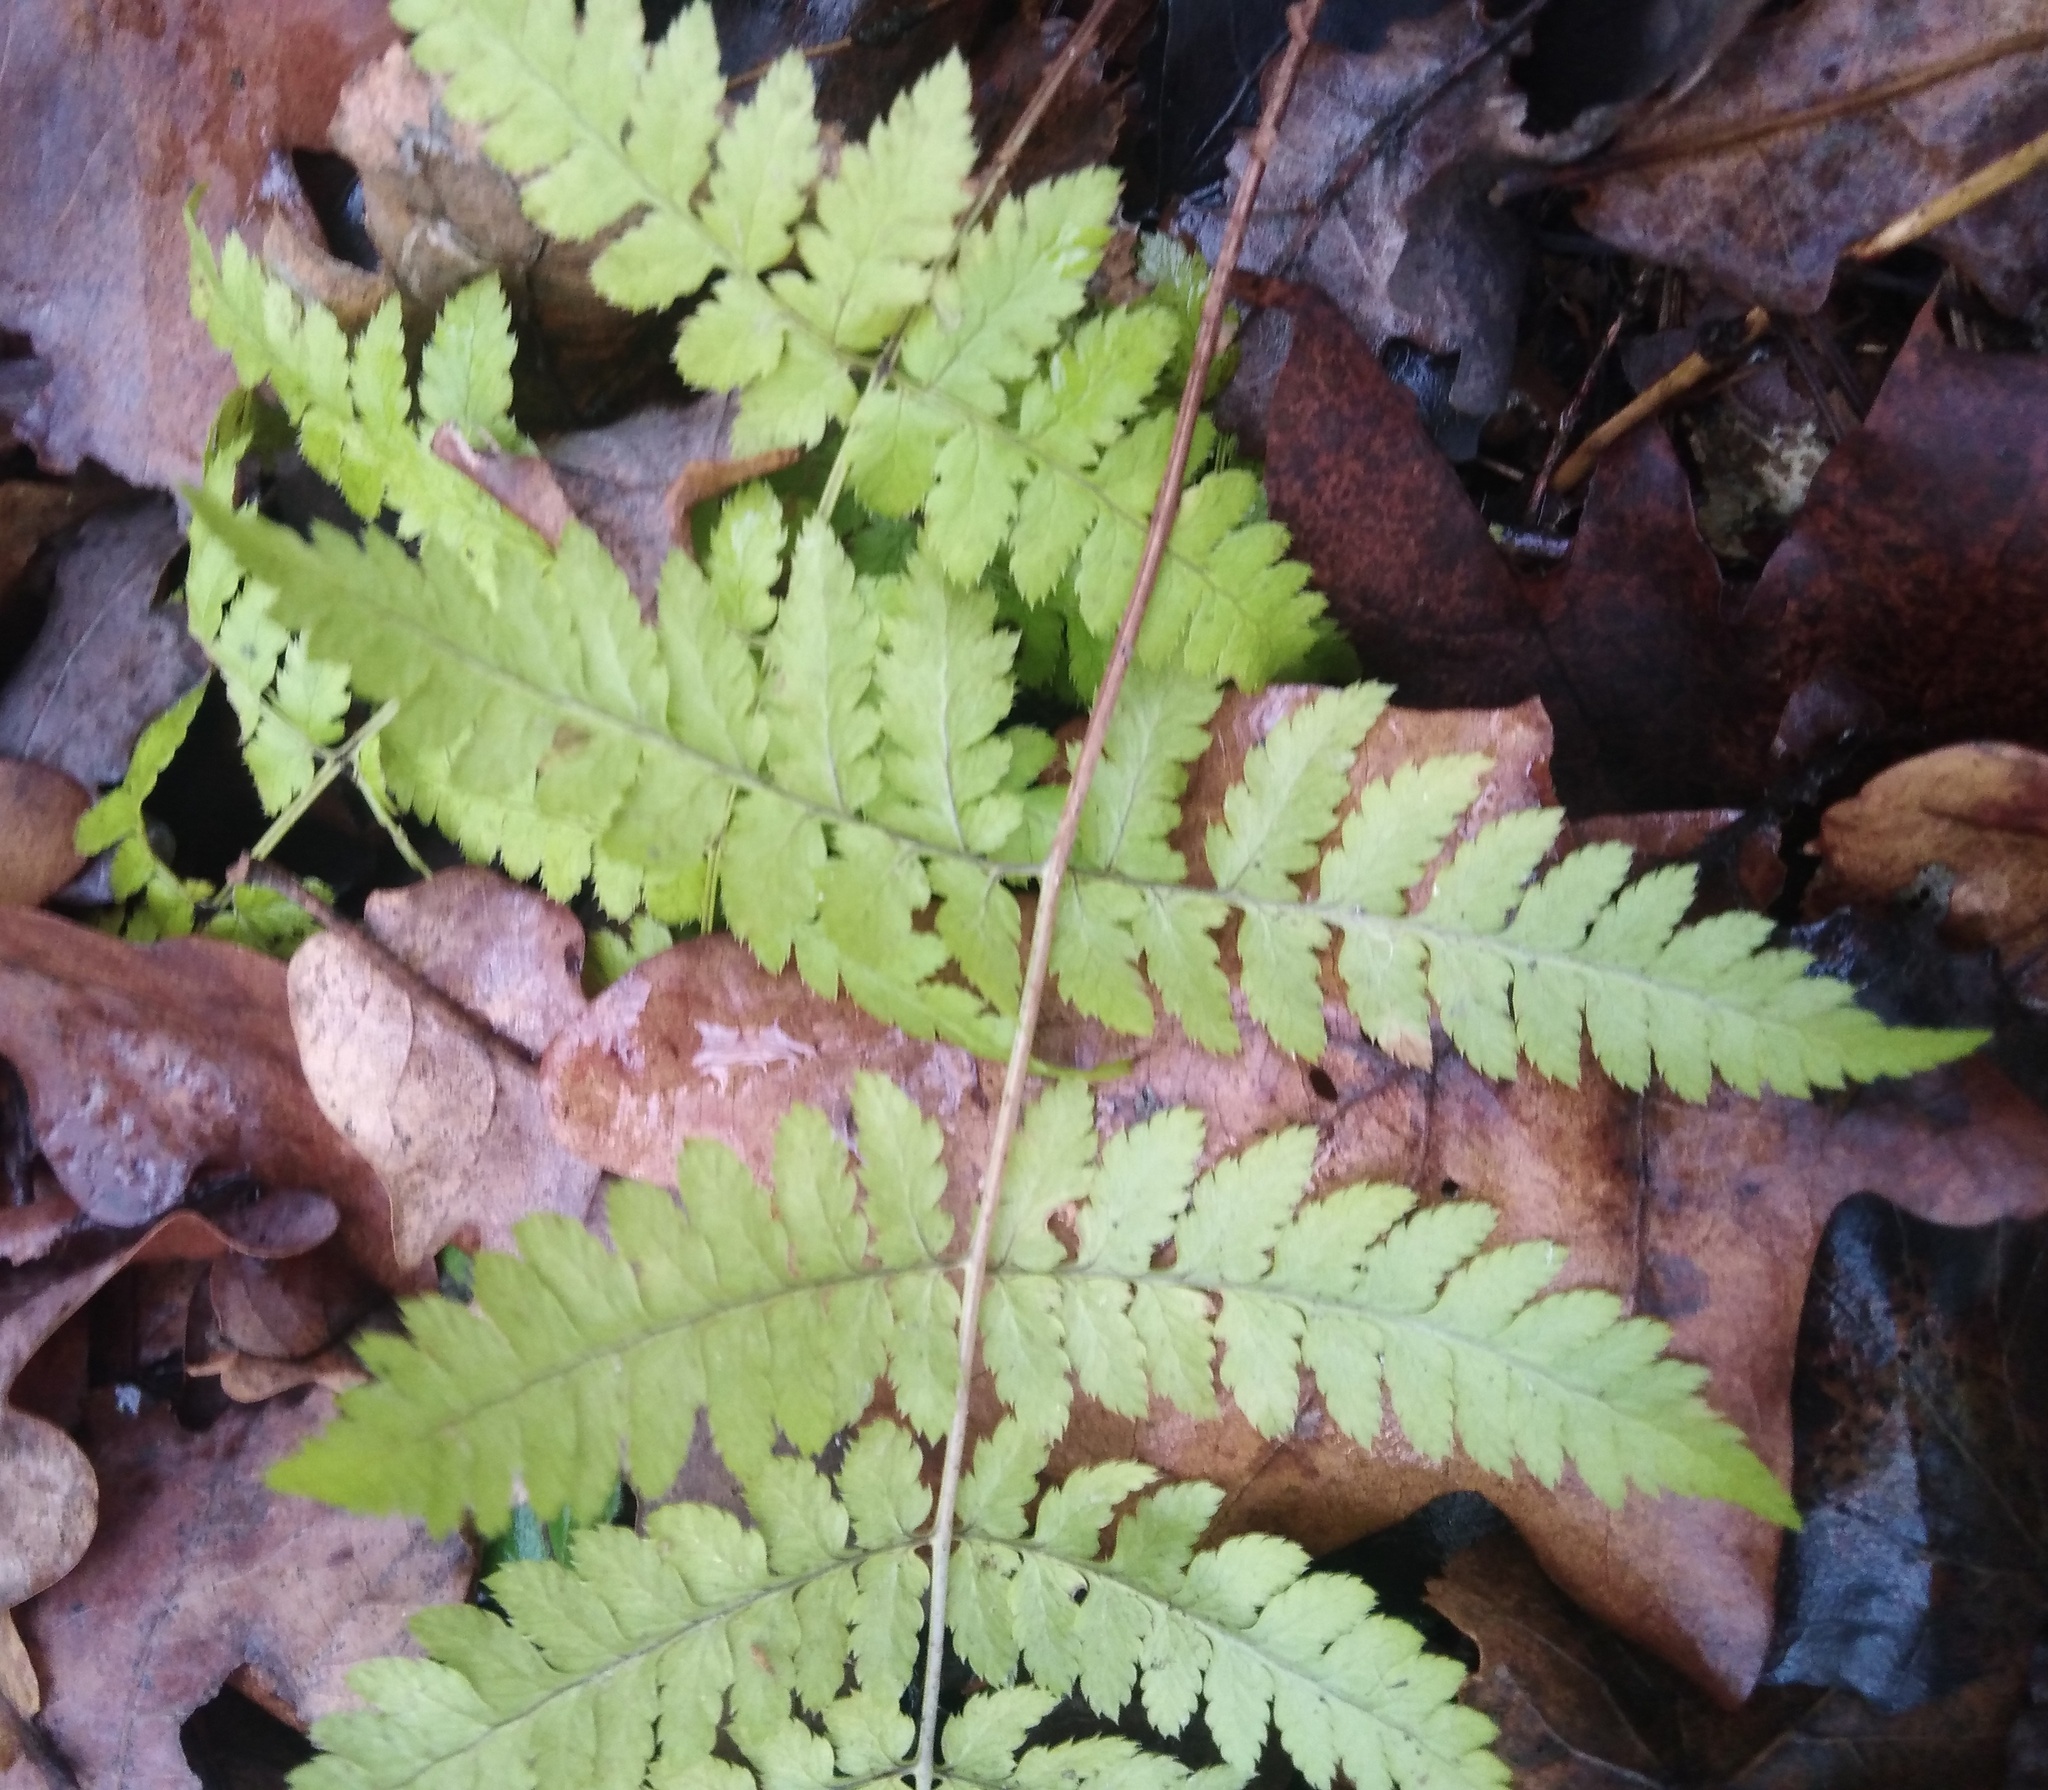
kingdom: Plantae
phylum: Tracheophyta
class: Polypodiopsida
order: Polypodiales
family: Dryopteridaceae
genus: Dryopteris
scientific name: Dryopteris carthusiana
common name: Narrow buckler-fern
